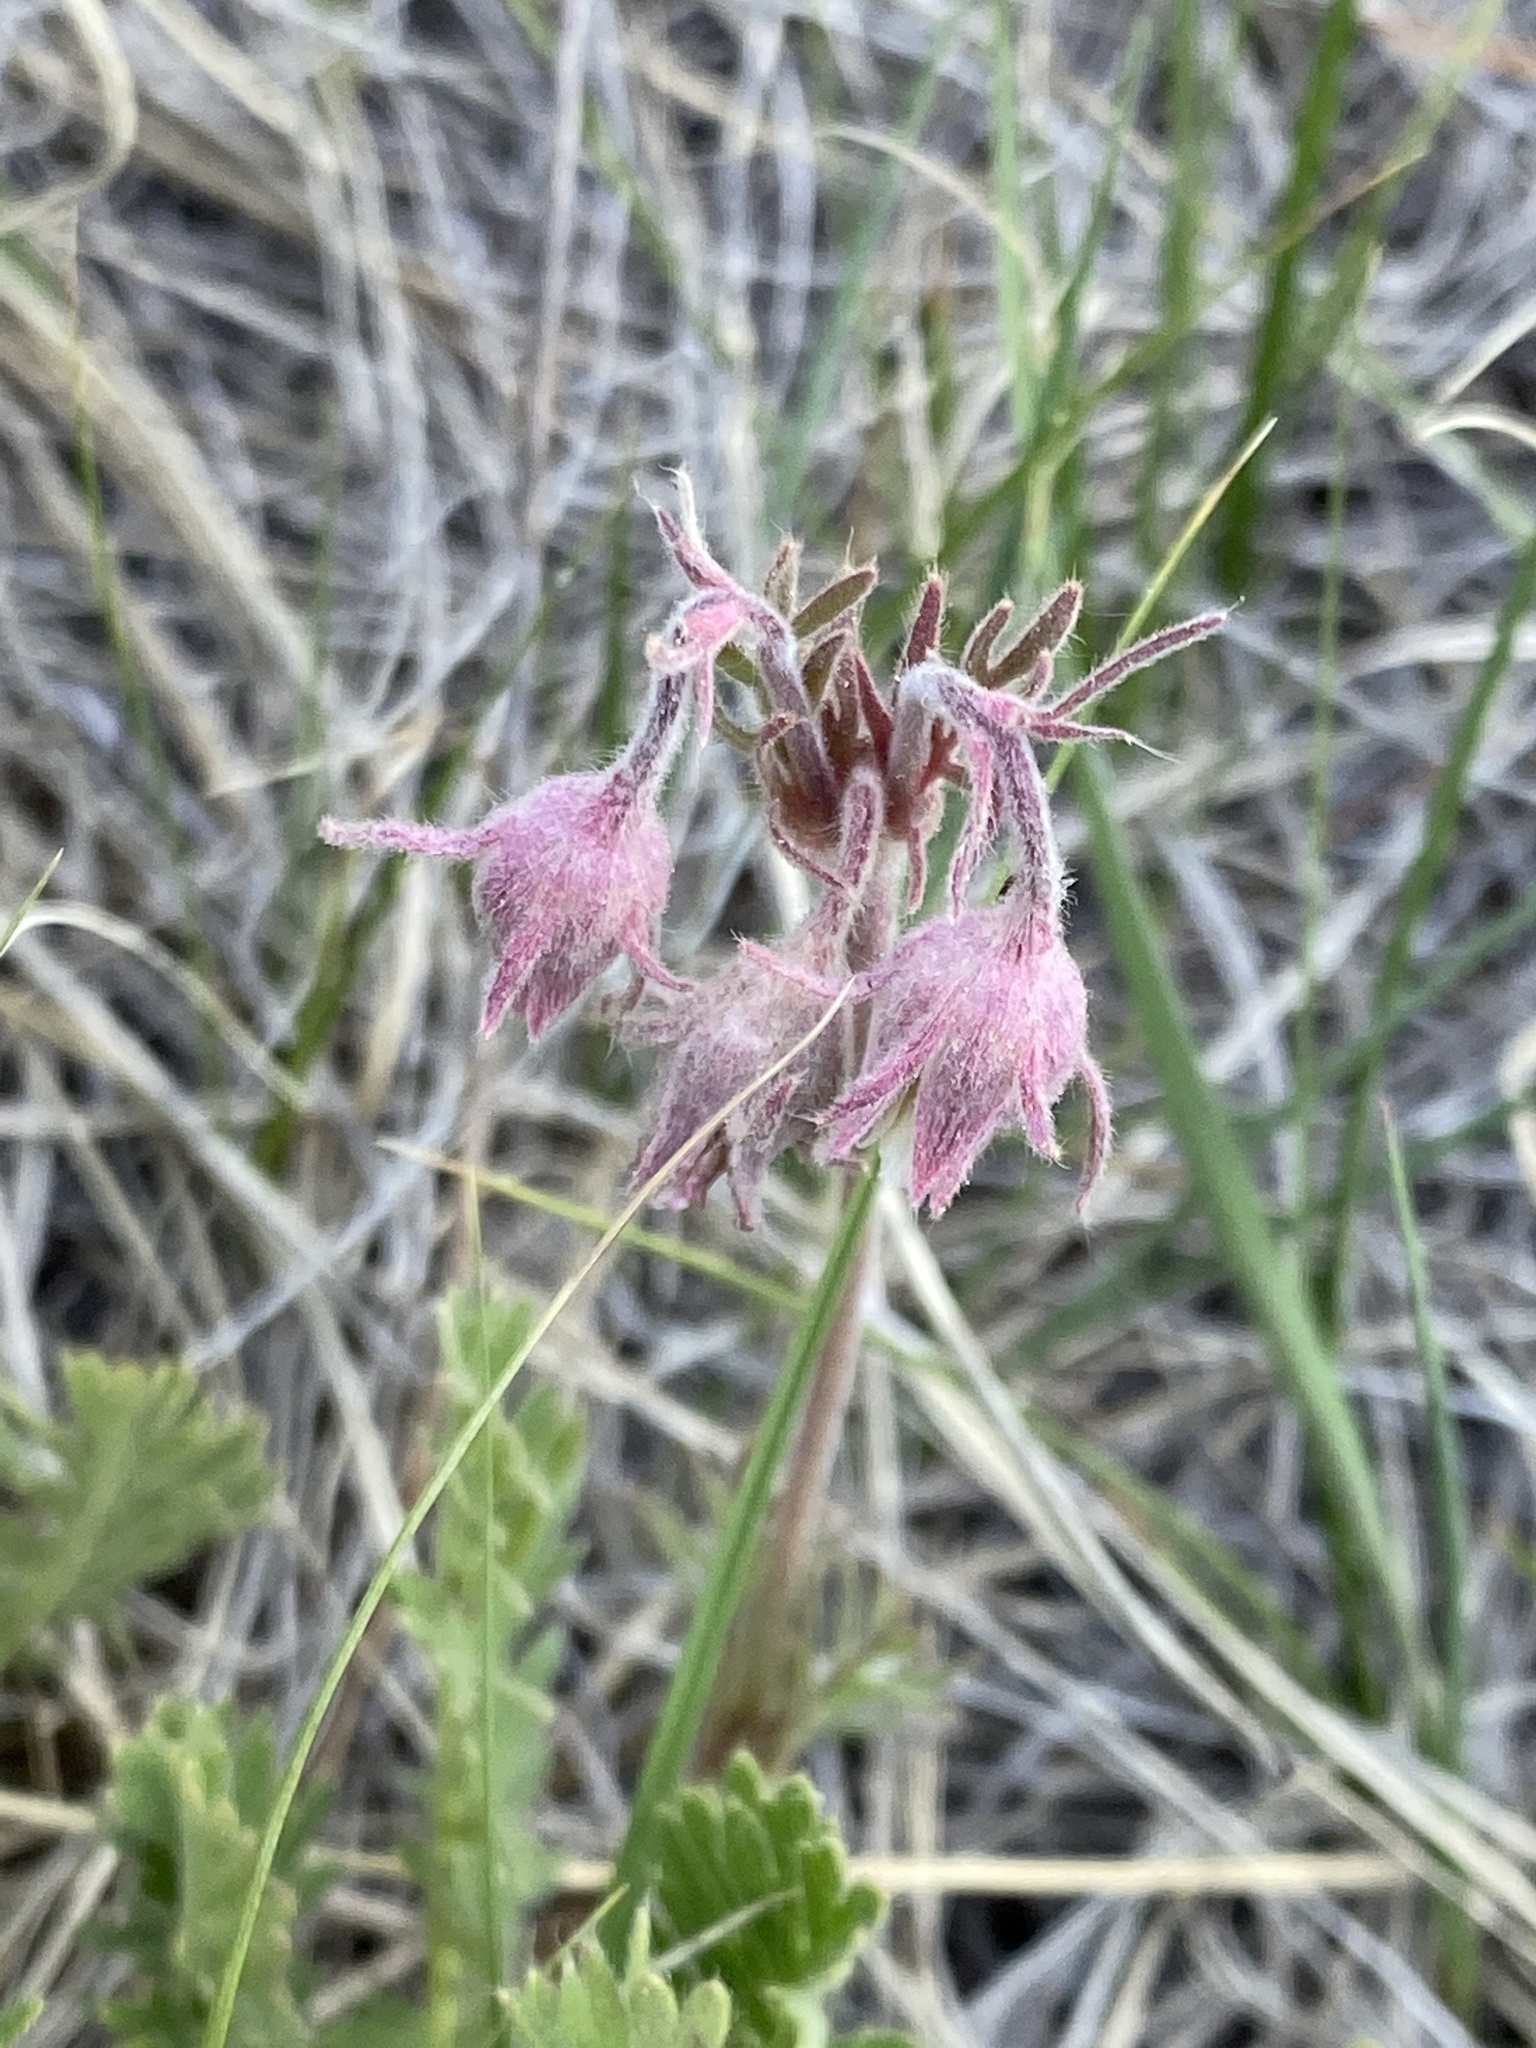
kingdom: Plantae
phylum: Tracheophyta
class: Magnoliopsida
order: Rosales
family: Rosaceae
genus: Geum
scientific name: Geum triflorum
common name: Old man's whiskers
